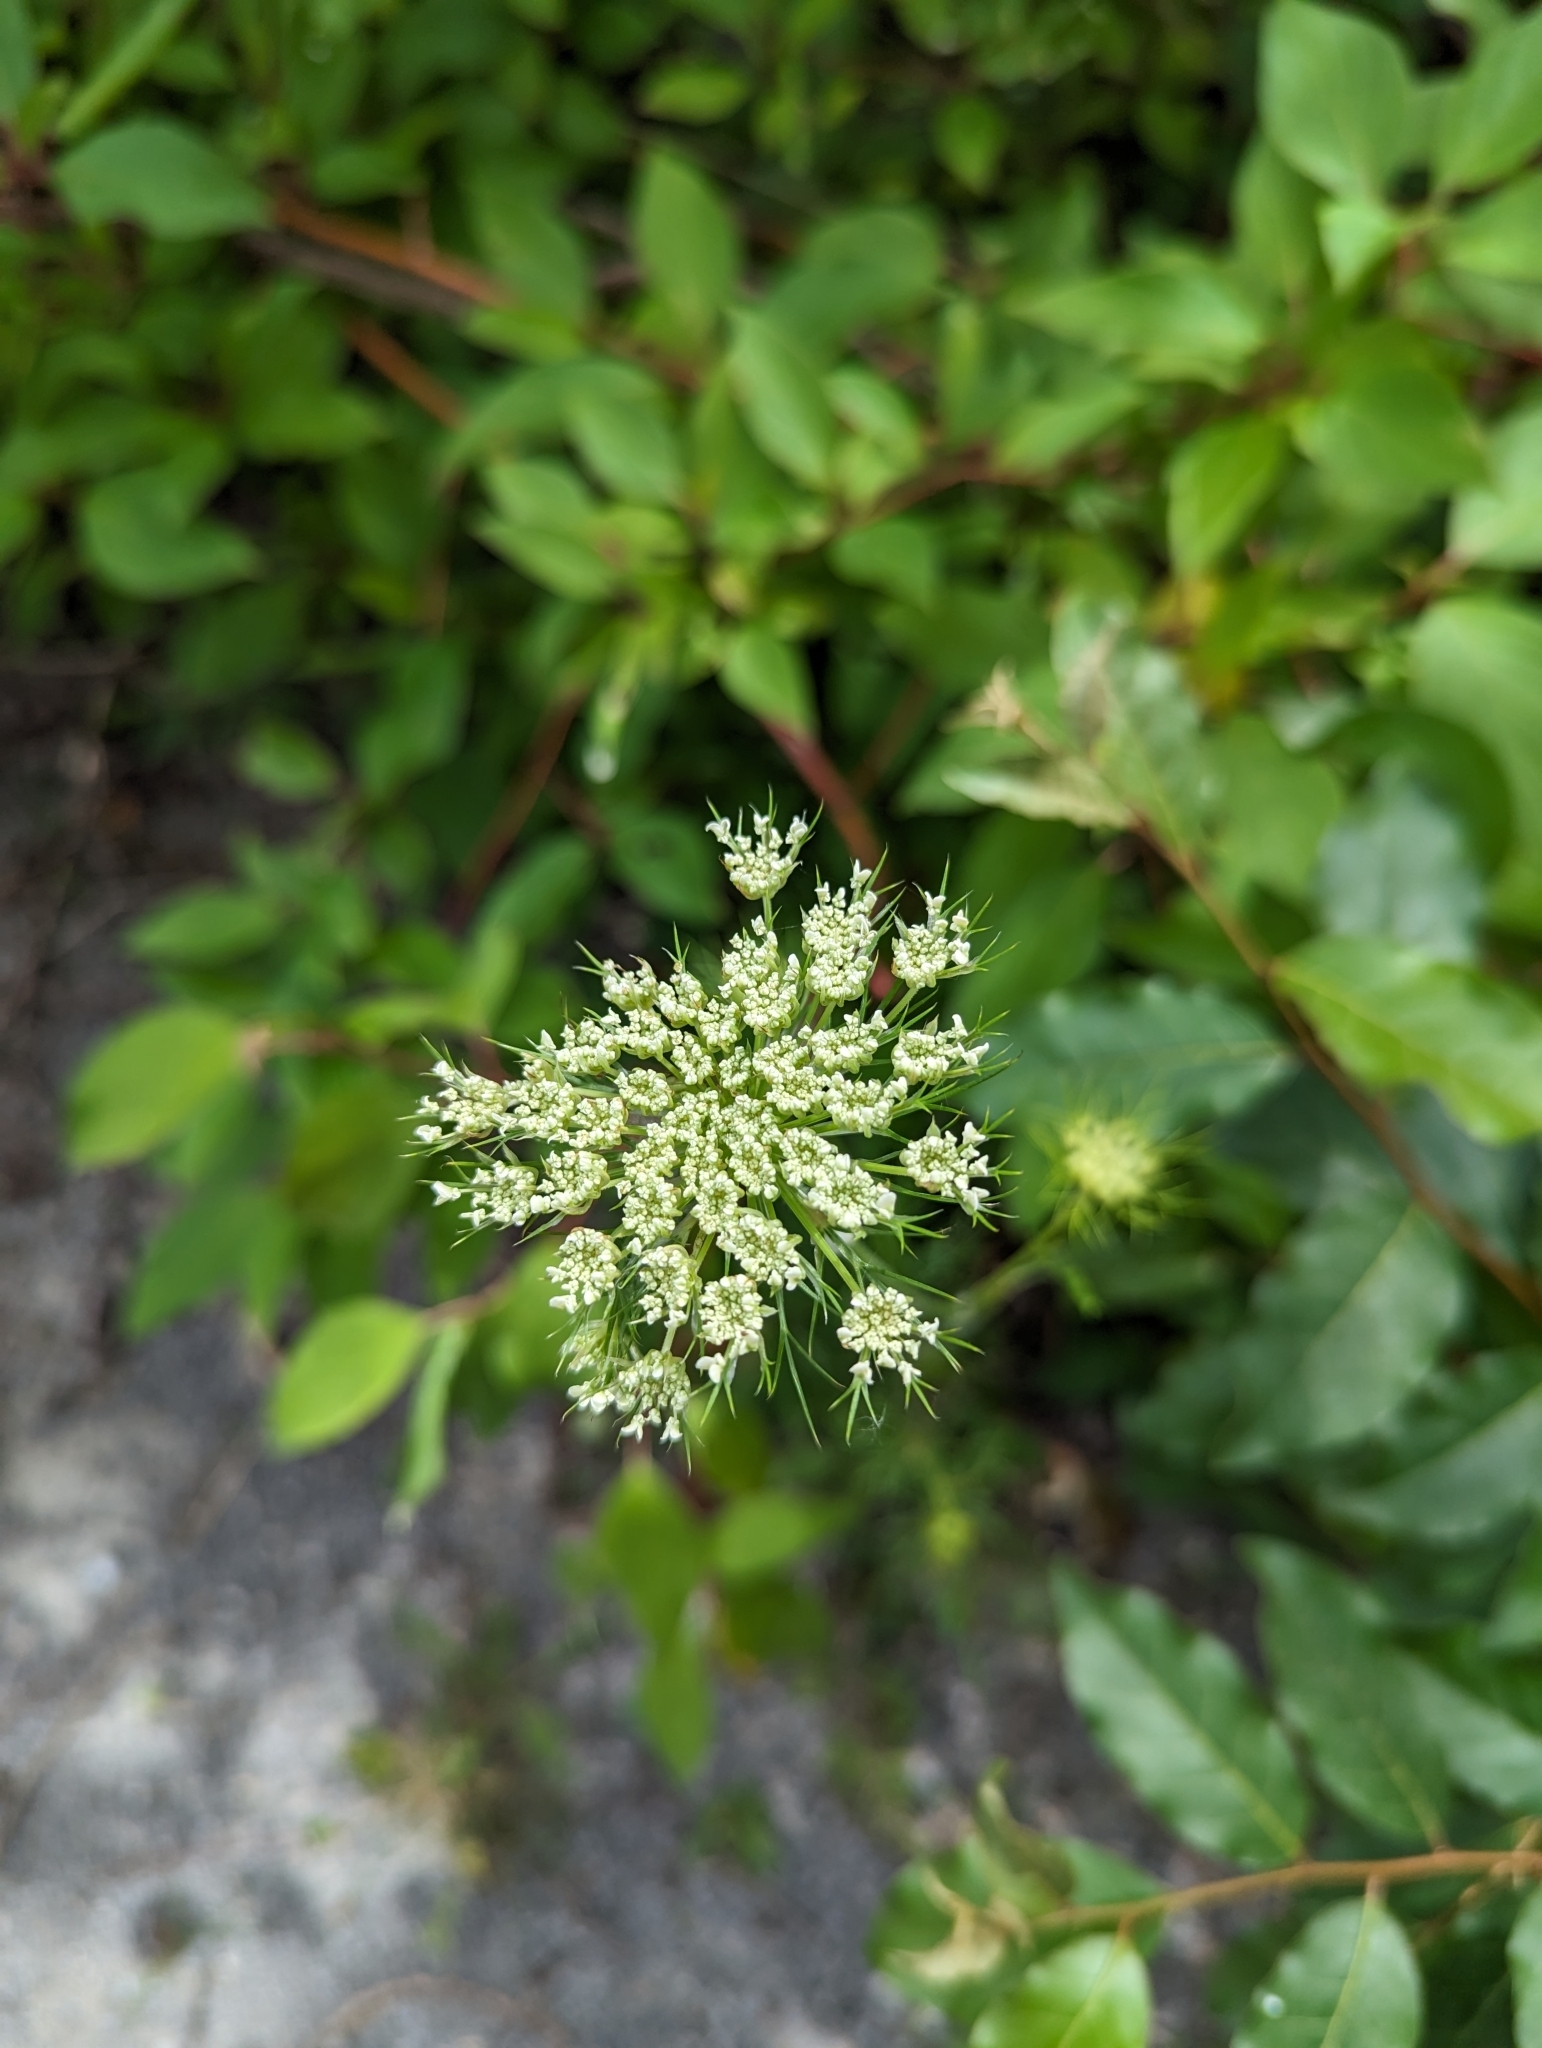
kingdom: Plantae
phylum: Tracheophyta
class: Magnoliopsida
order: Apiales
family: Apiaceae
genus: Daucus
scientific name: Daucus carota
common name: Wild carrot
